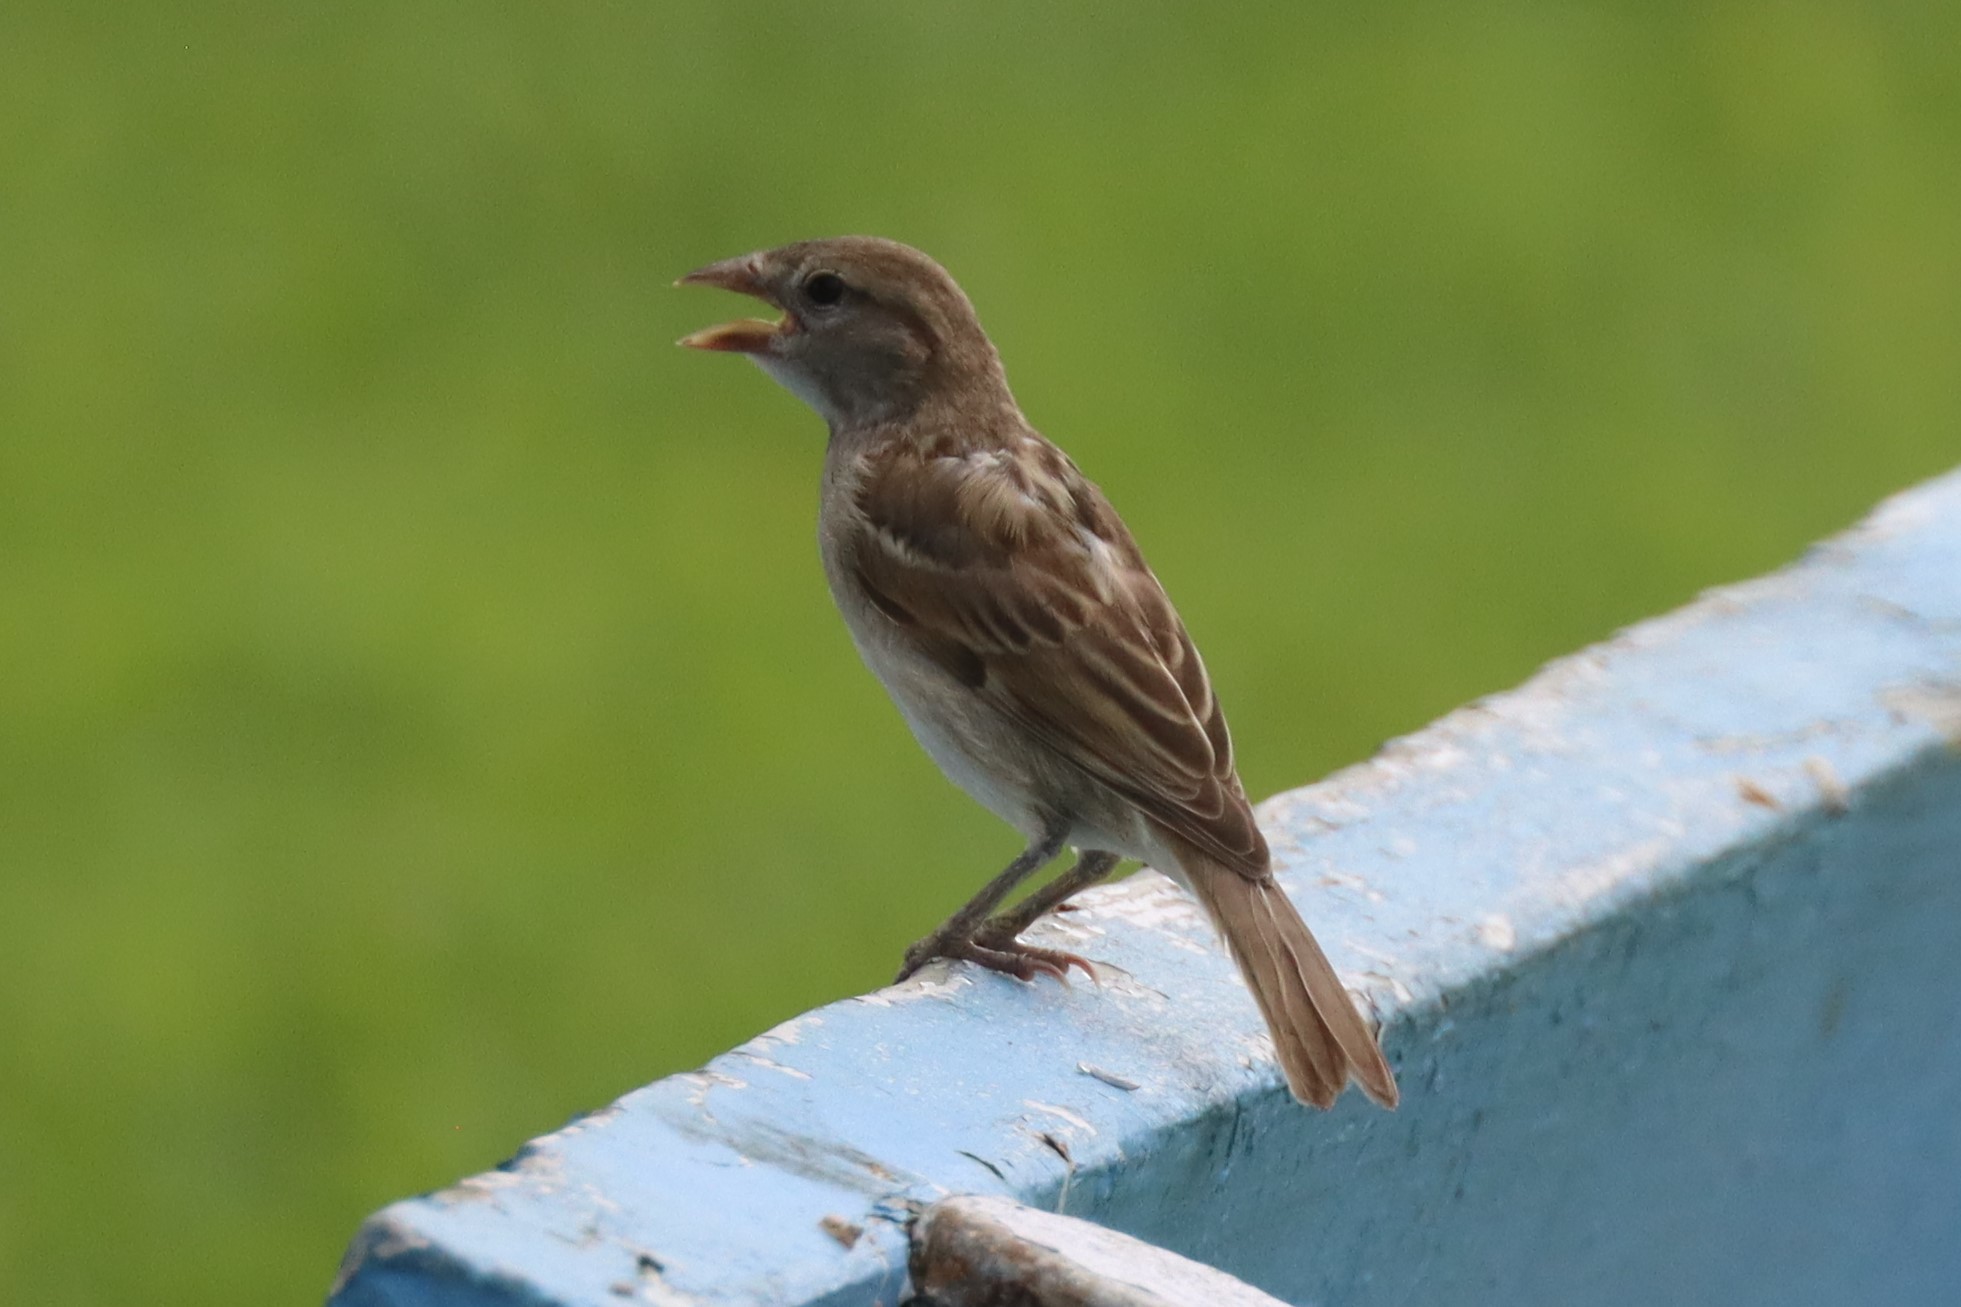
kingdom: Animalia
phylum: Chordata
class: Aves
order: Passeriformes
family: Passeridae
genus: Passer
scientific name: Passer domesticus
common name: House sparrow
